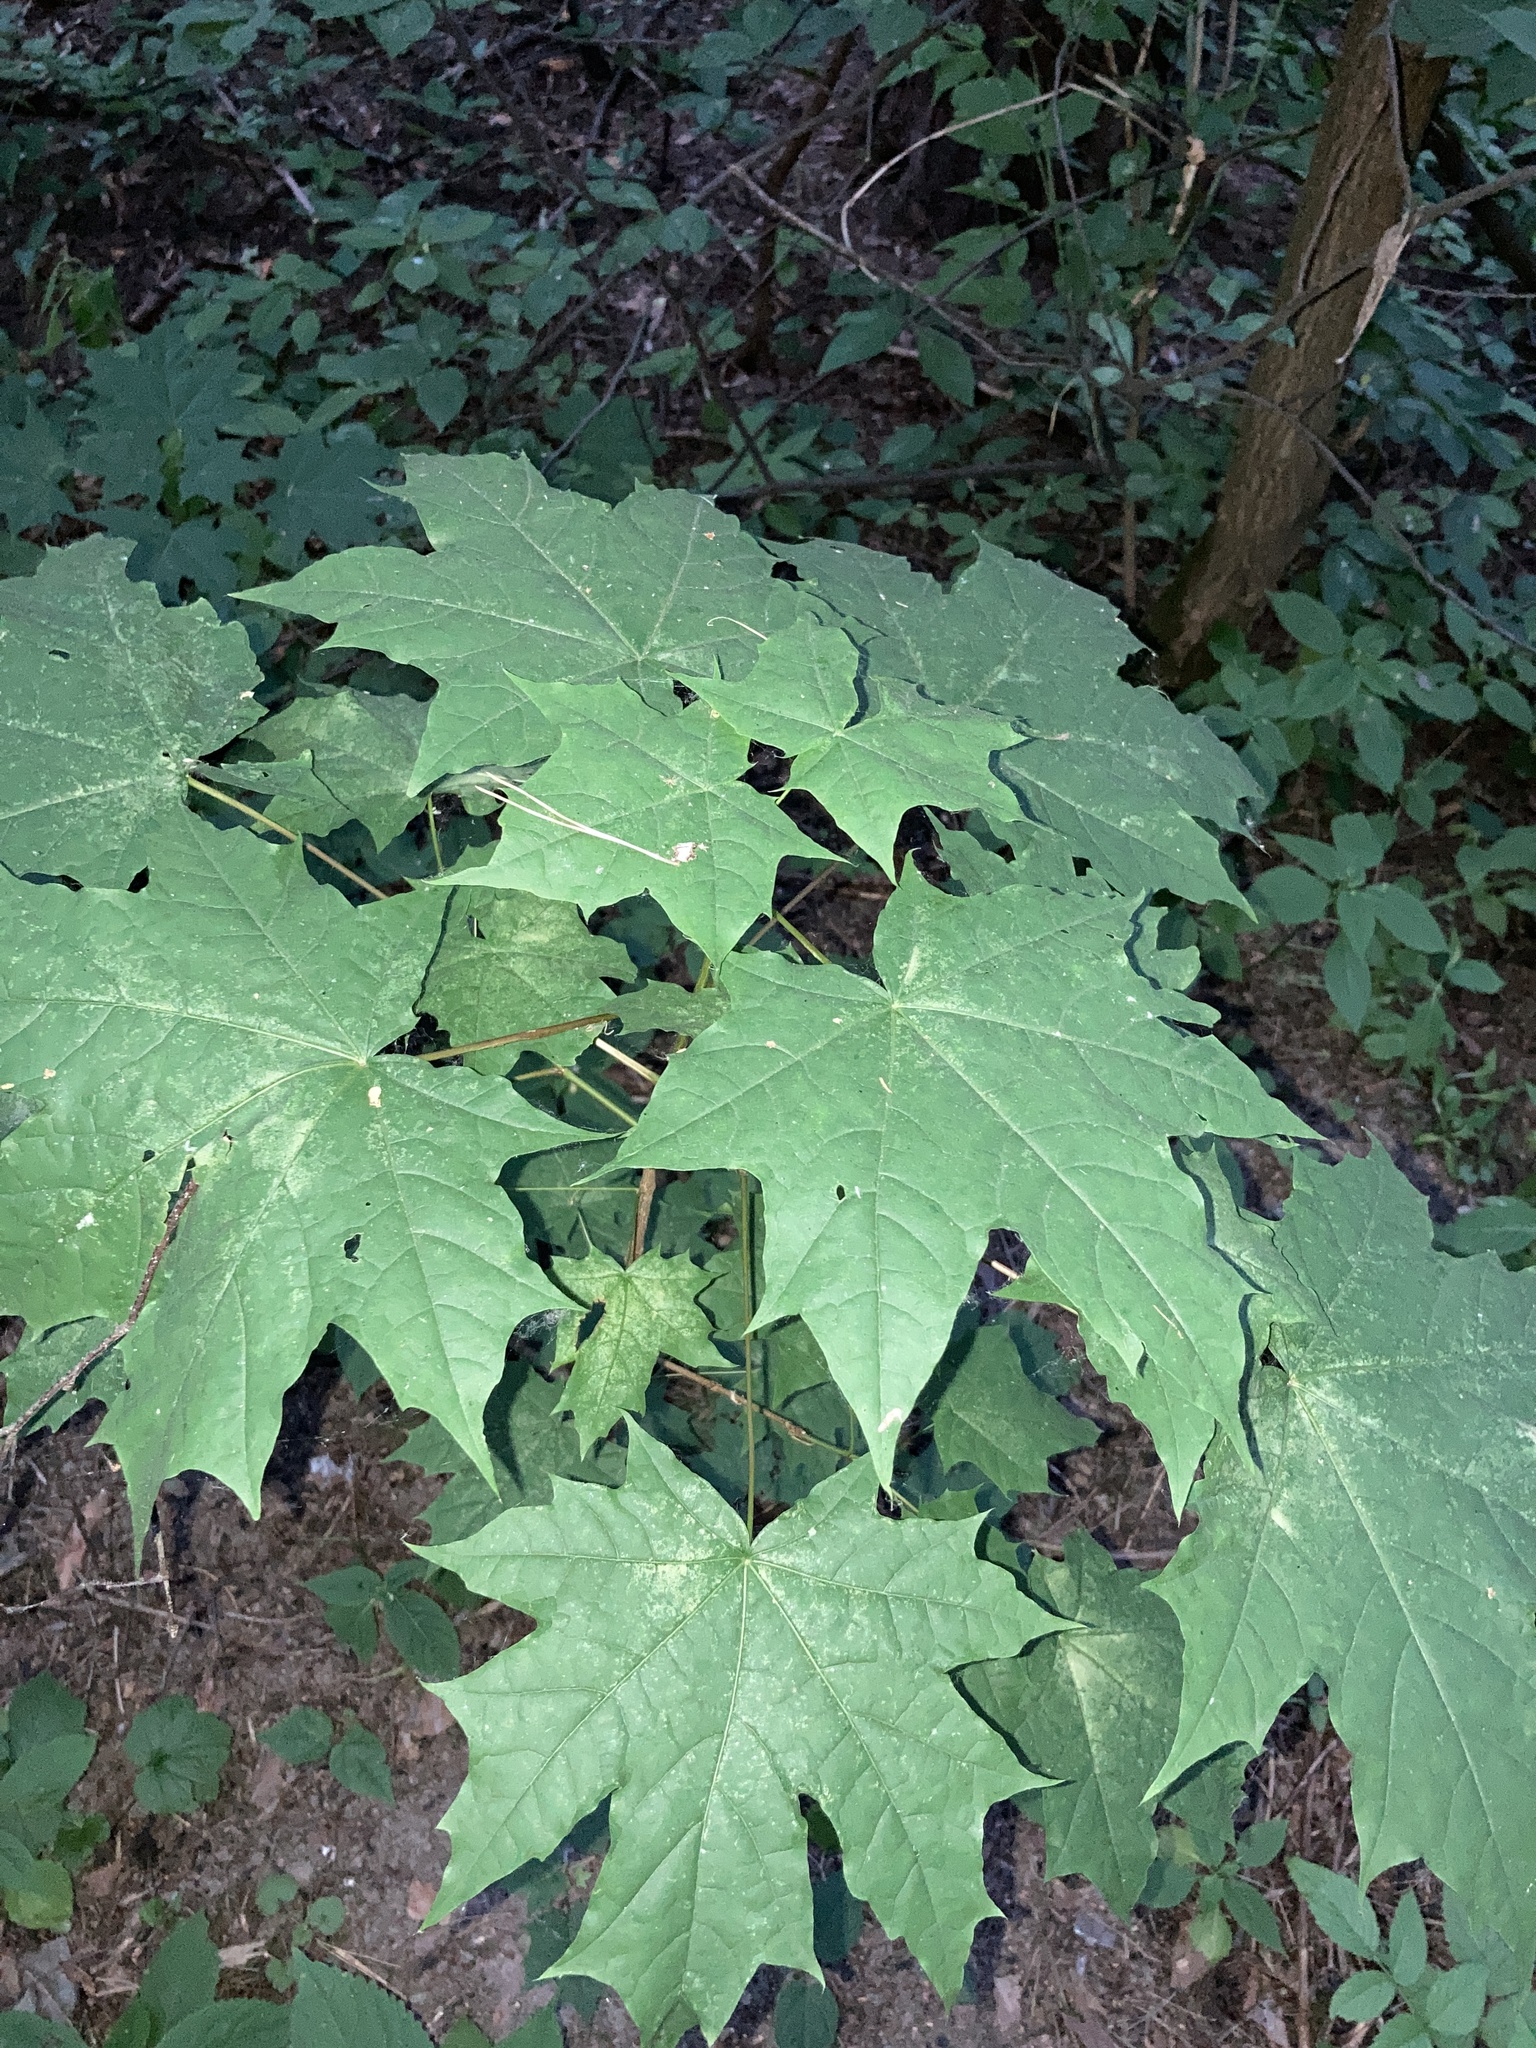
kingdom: Plantae
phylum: Tracheophyta
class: Magnoliopsida
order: Sapindales
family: Sapindaceae
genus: Acer
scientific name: Acer platanoides
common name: Norway maple
